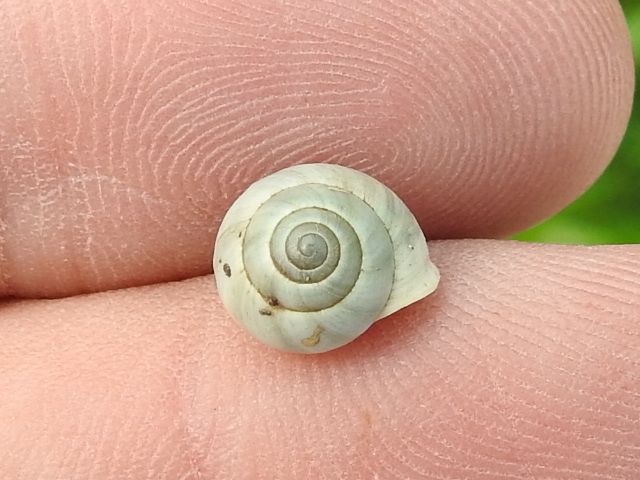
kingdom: Animalia
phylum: Mollusca
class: Gastropoda
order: Cycloneritida
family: Helicinidae
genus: Helicina
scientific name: Helicina orbiculata
